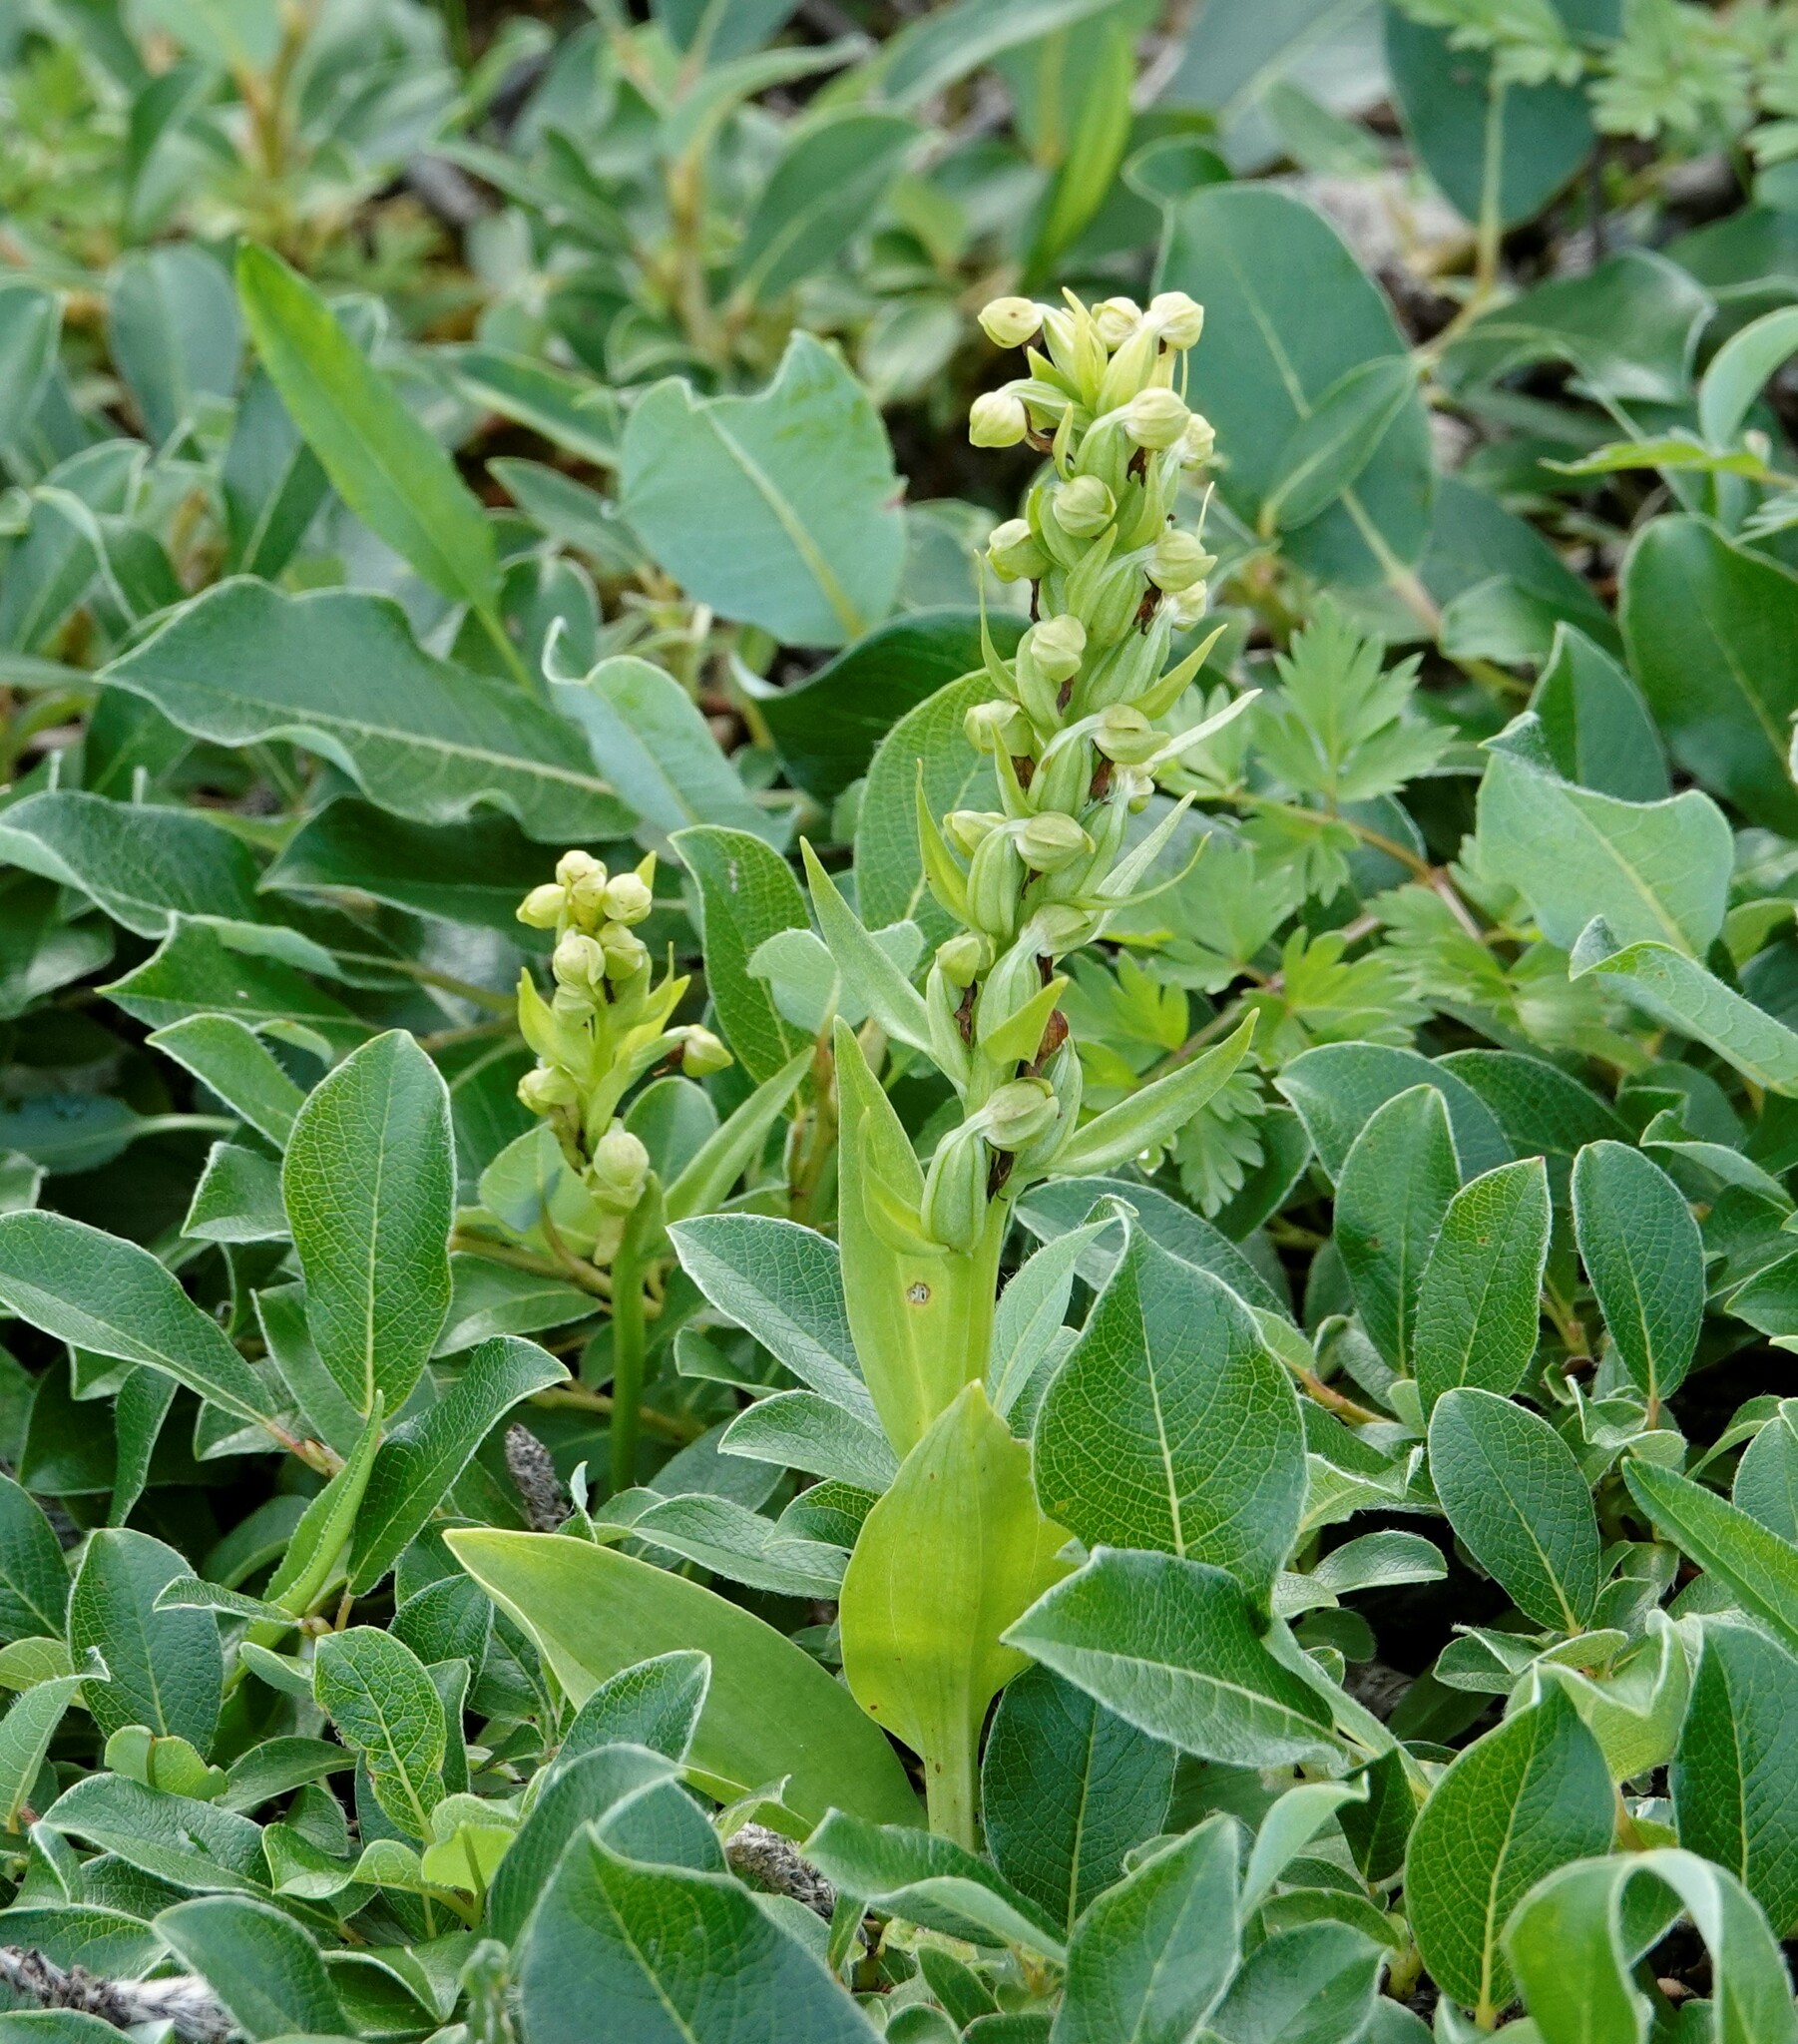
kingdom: Plantae
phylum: Tracheophyta
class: Liliopsida
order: Asparagales
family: Orchidaceae
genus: Dactylorhiza
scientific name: Dactylorhiza viridis
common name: Longbract frog orchid
